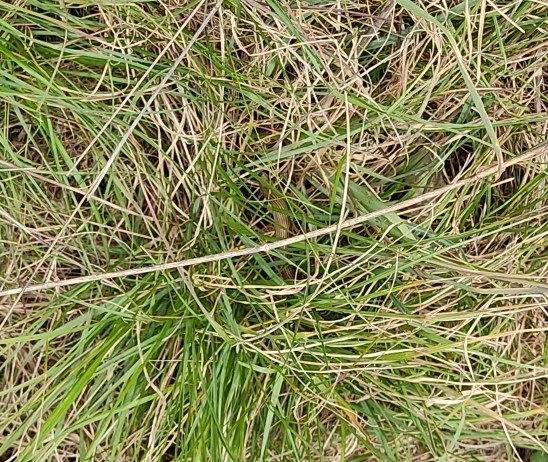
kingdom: Animalia
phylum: Chordata
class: Squamata
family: Scincidae
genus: Chalcides
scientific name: Chalcides striatus
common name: Western (or iberian) three-toed skink
